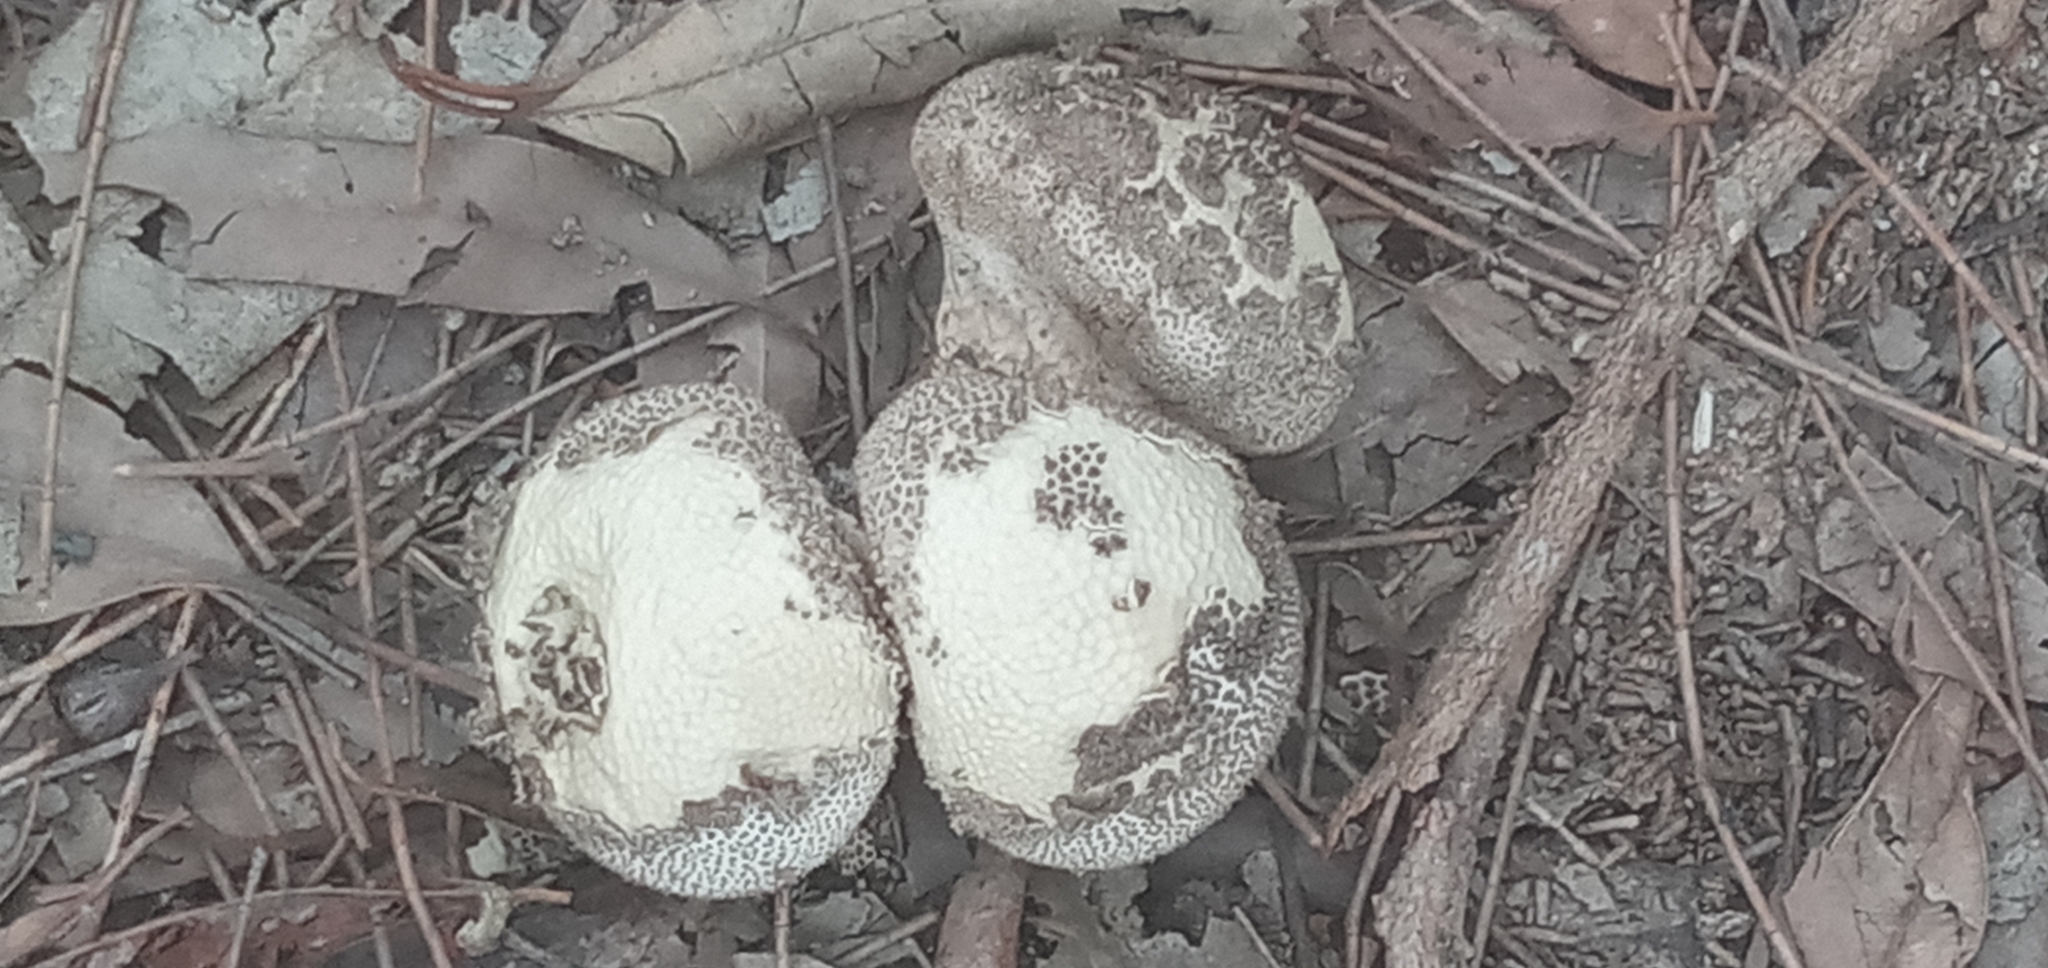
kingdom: Fungi
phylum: Basidiomycota
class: Agaricomycetes
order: Agaricales
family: Lycoperdaceae
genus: Lycoperdon
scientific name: Lycoperdon perlatum
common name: Common puffball
